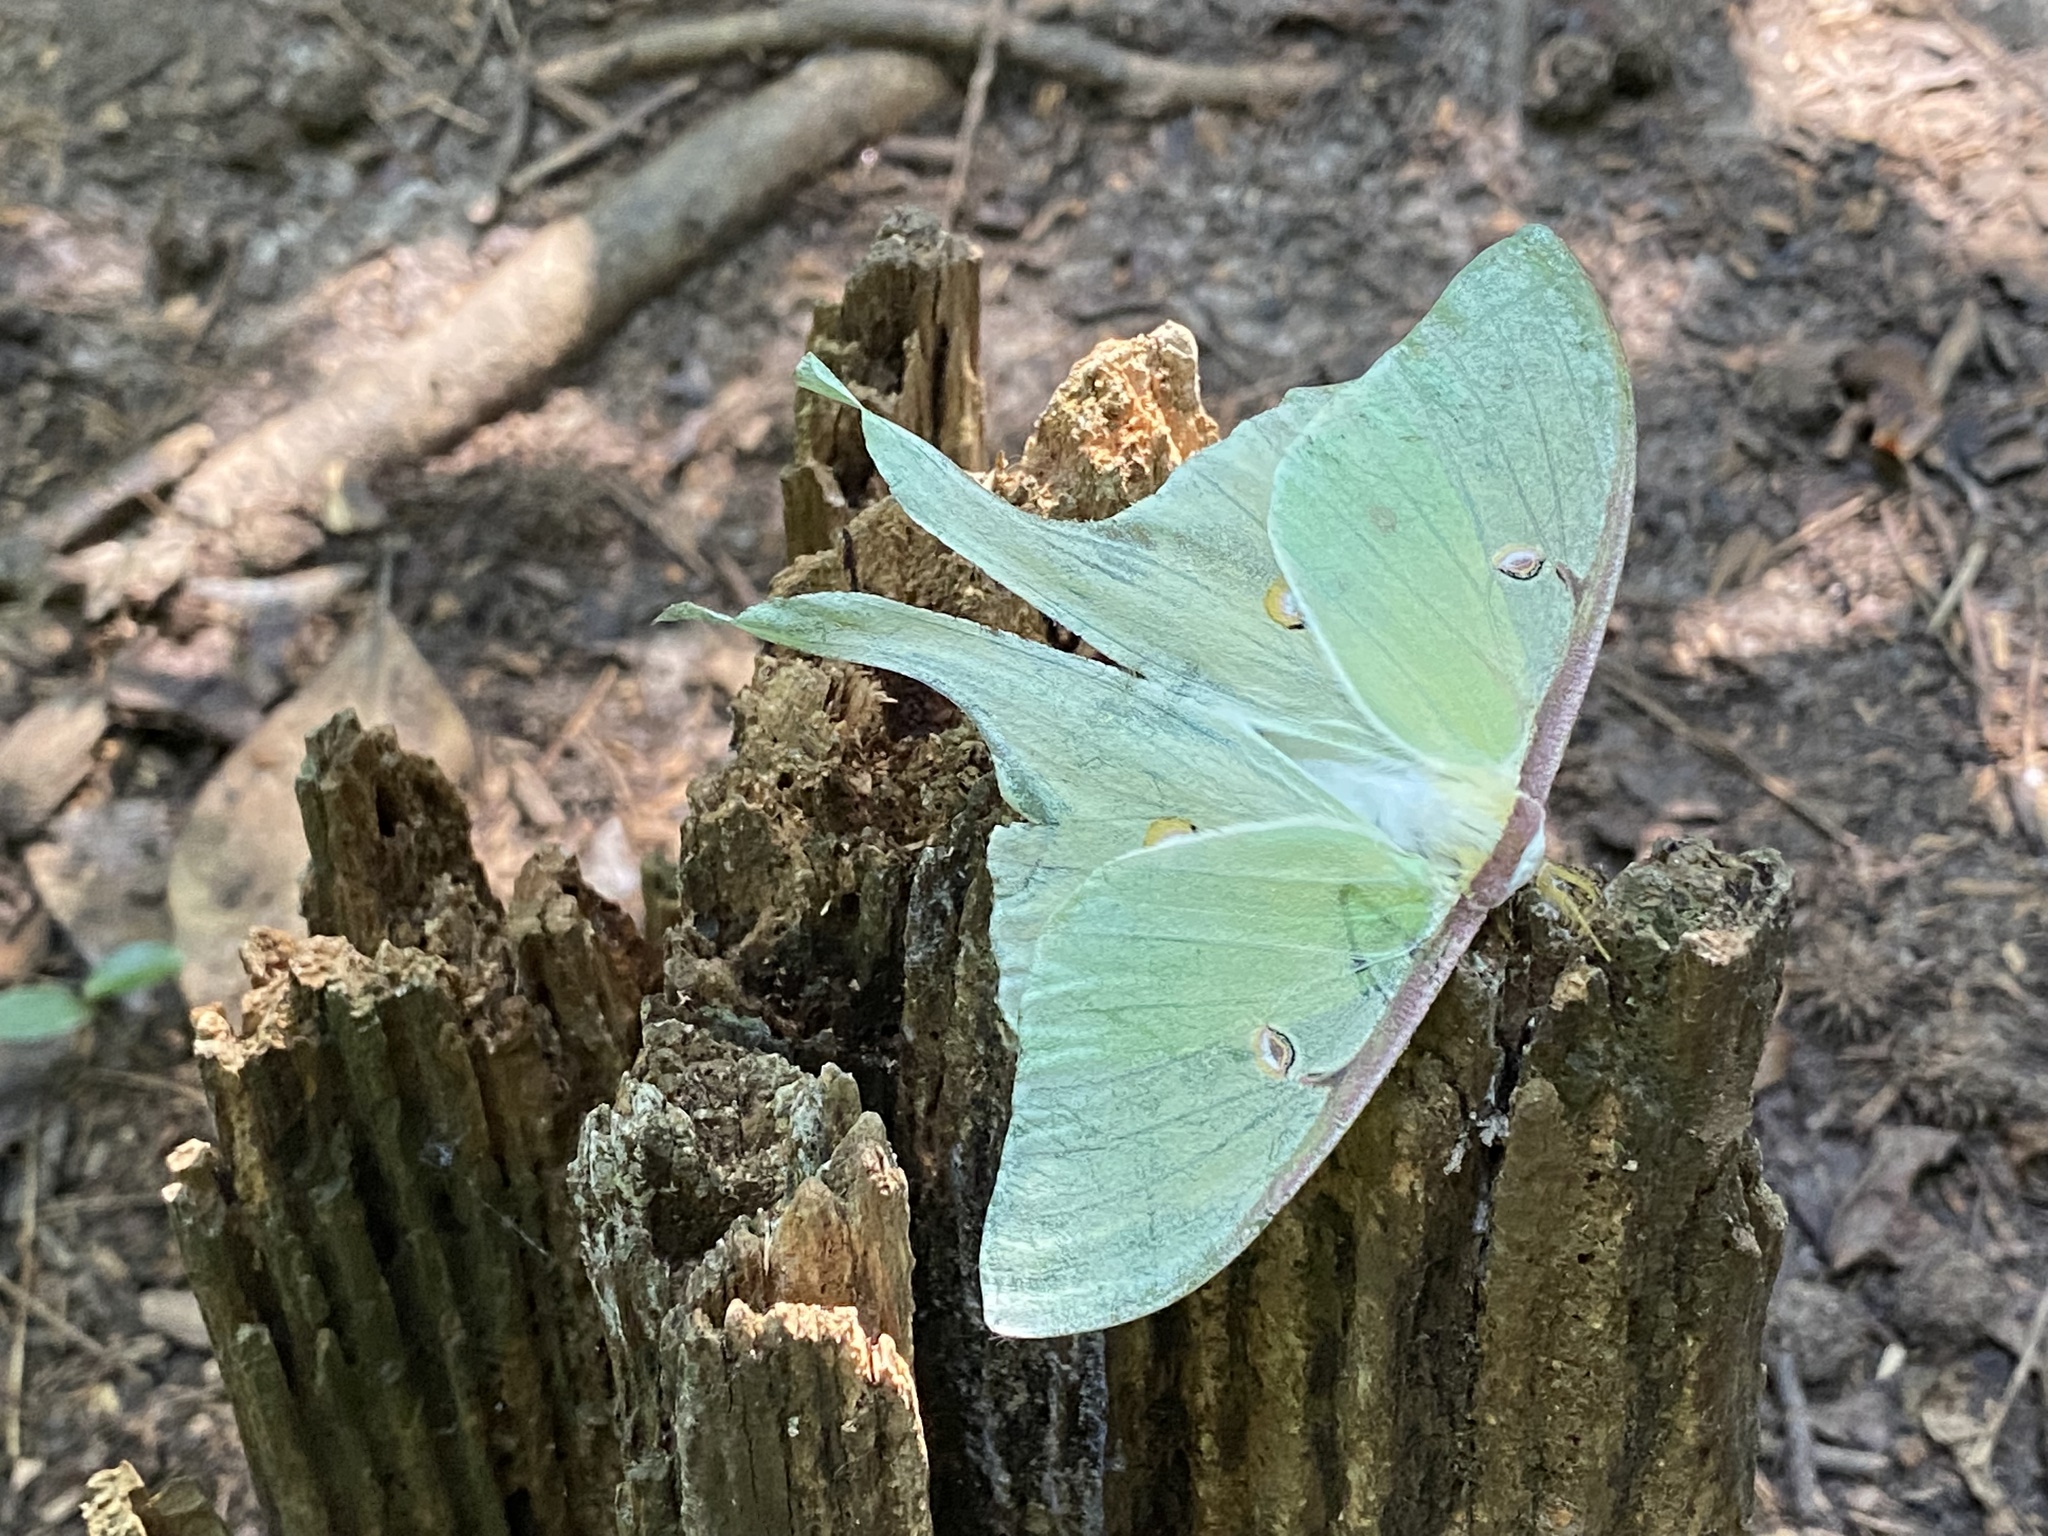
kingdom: Animalia
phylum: Arthropoda
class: Insecta
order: Lepidoptera
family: Saturniidae
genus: Actias
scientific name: Actias luna
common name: Luna moth
